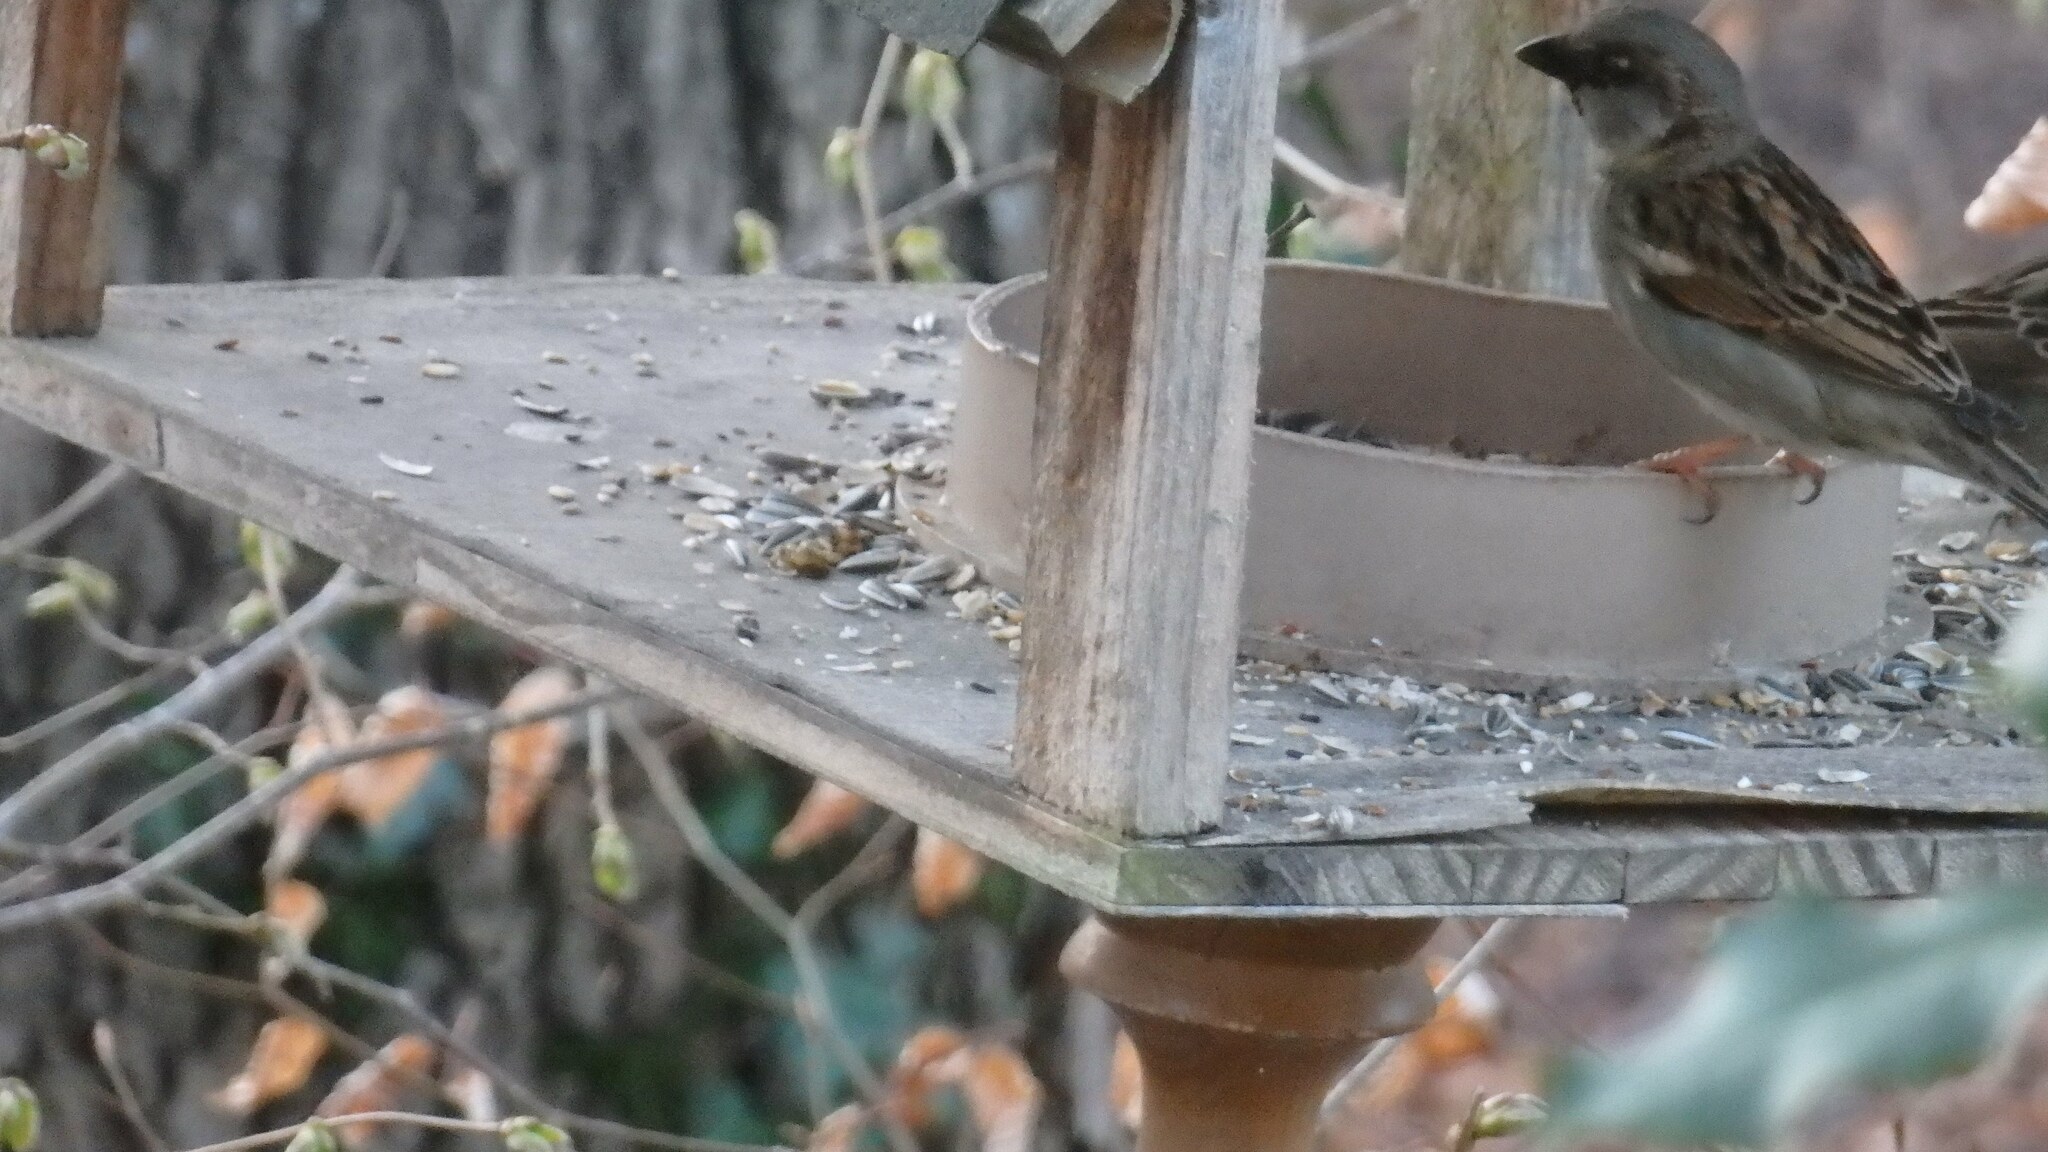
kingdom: Animalia
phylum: Chordata
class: Aves
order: Passeriformes
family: Passeridae
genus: Passer
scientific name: Passer domesticus
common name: House sparrow
